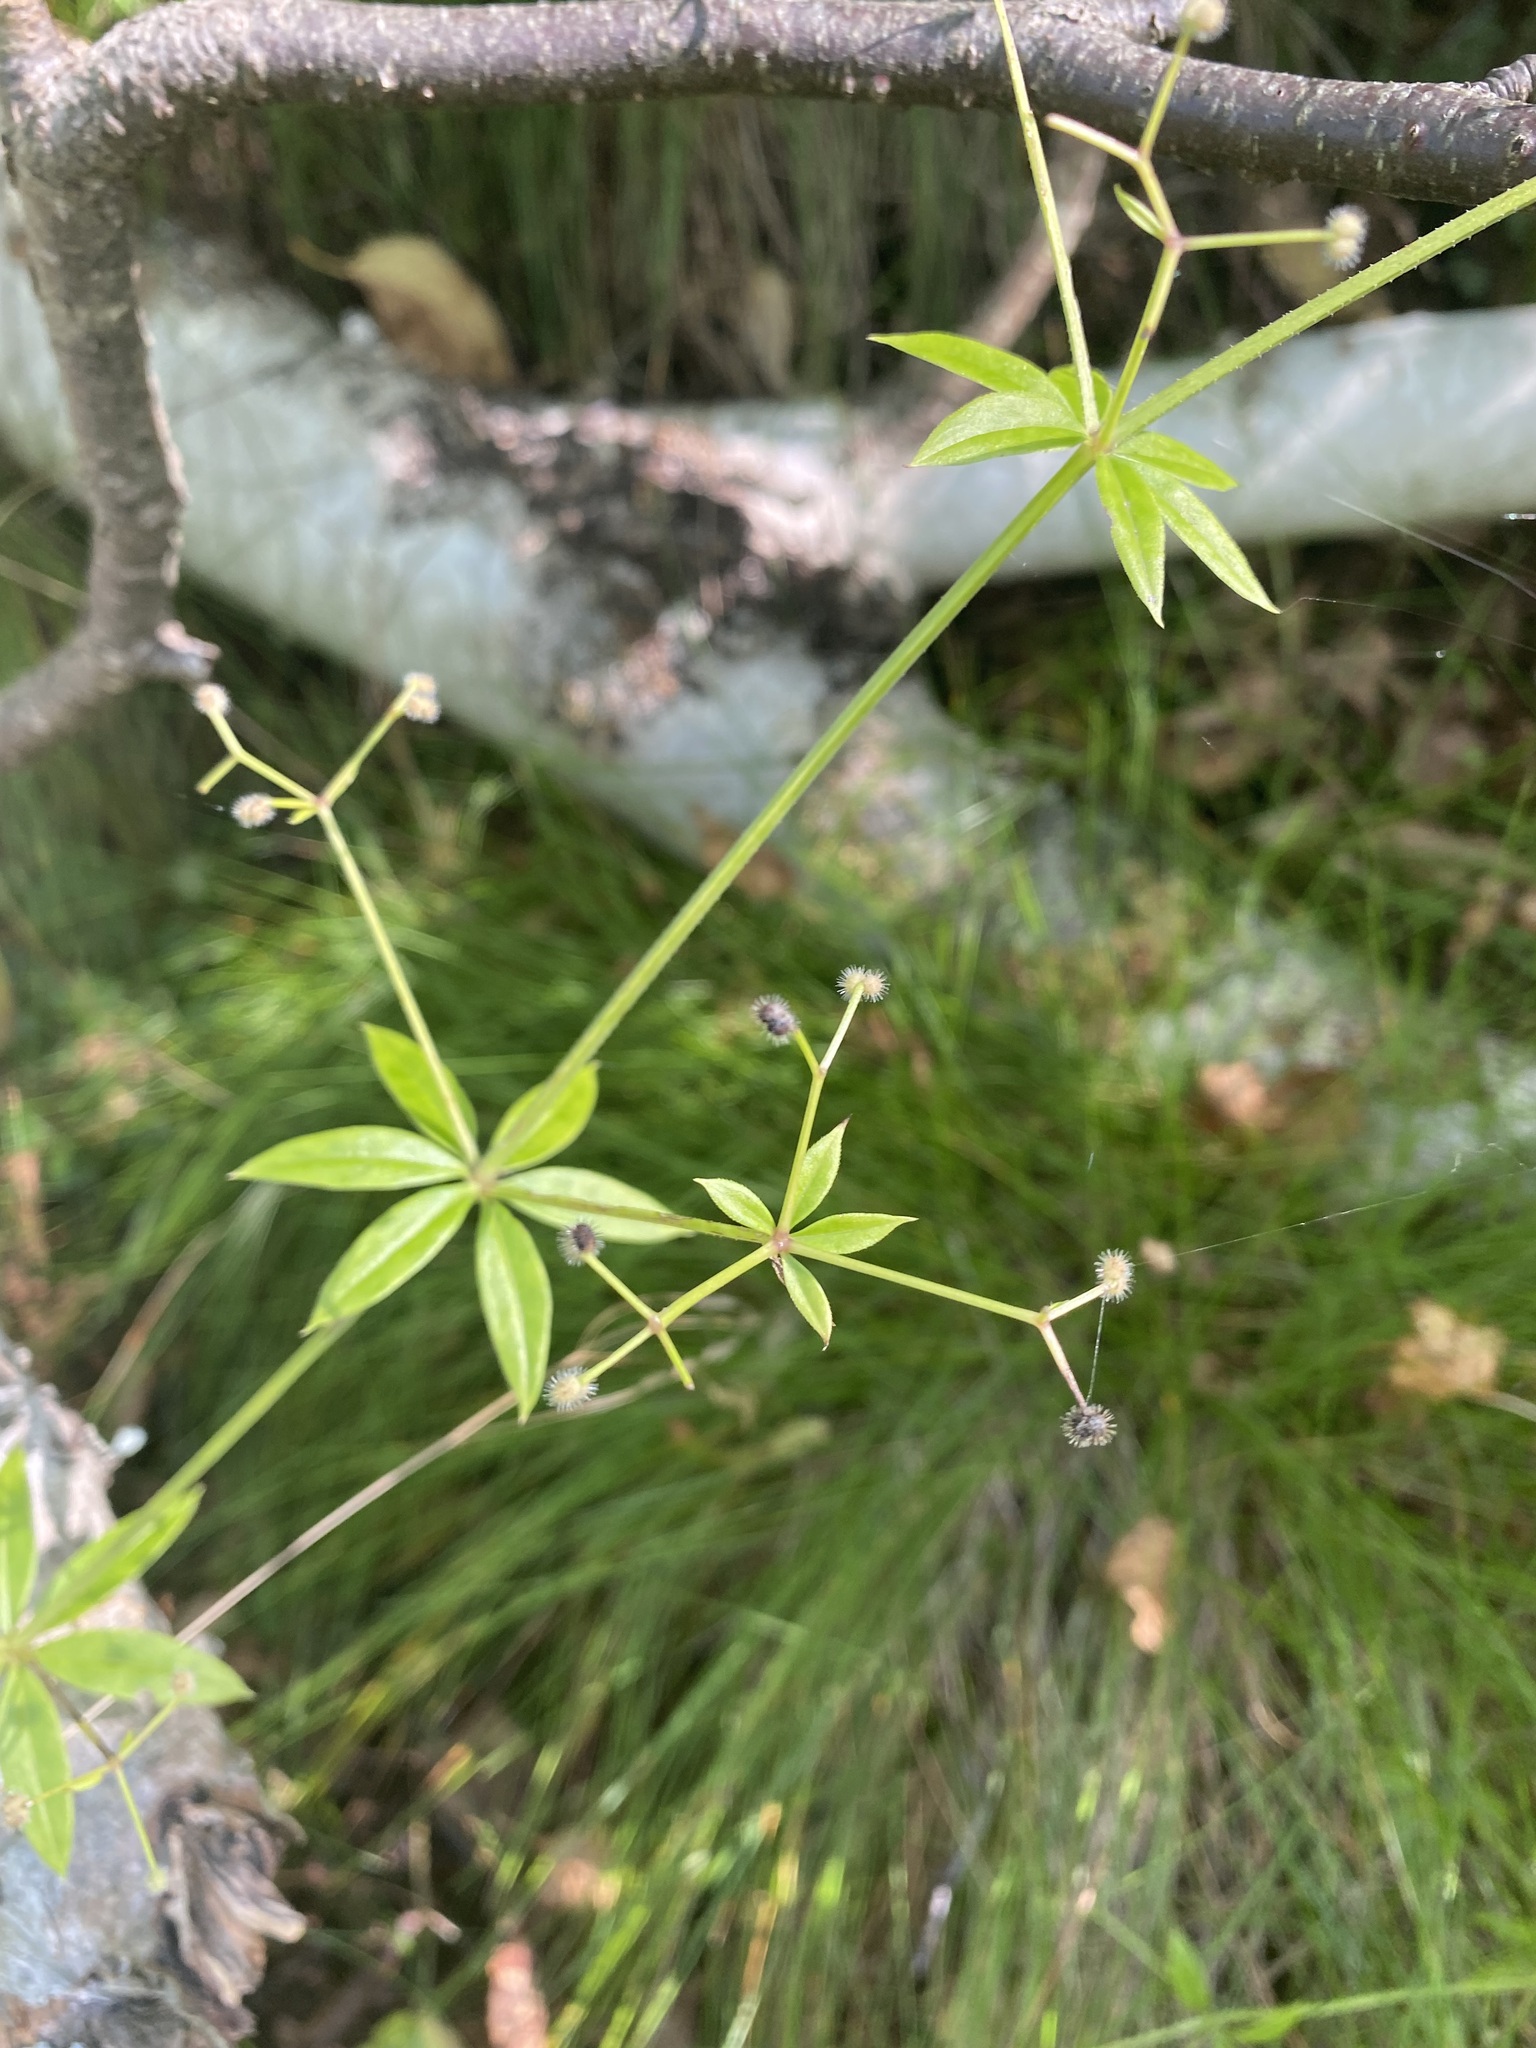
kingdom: Plantae
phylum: Tracheophyta
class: Magnoliopsida
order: Gentianales
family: Rubiaceae
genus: Galium
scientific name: Galium triflorum
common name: Fragrant bedstraw
